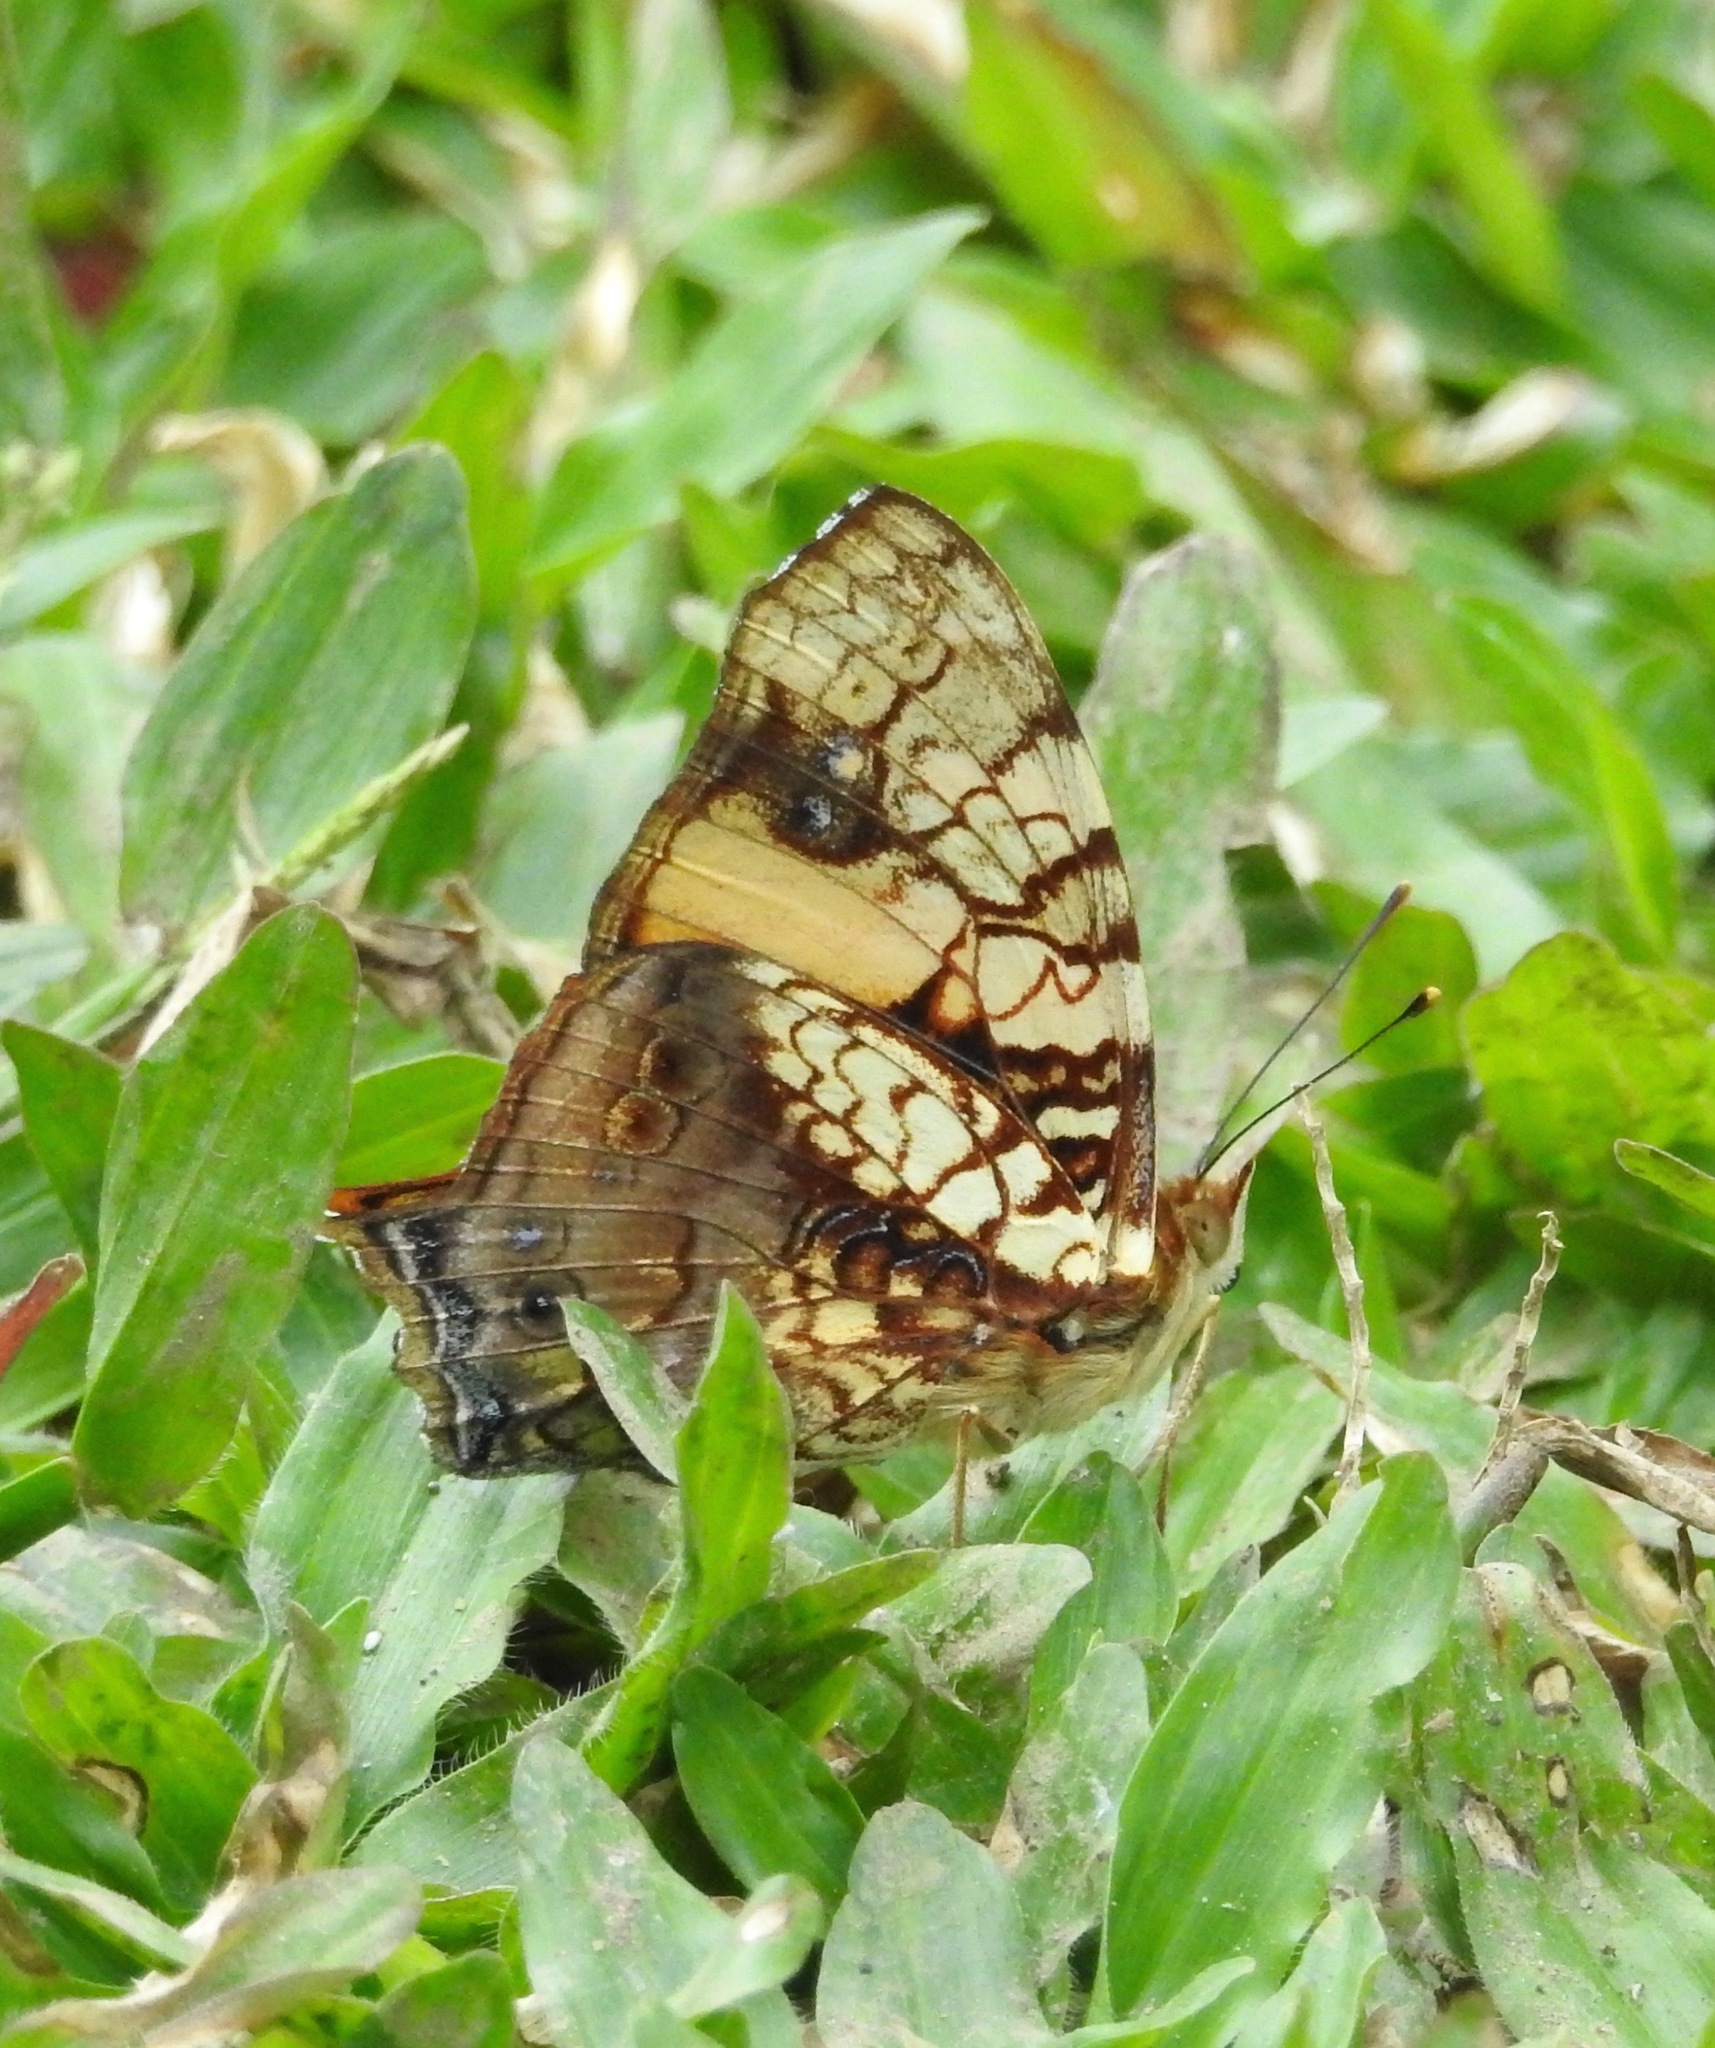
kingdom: Animalia
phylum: Arthropoda
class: Insecta
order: Lepidoptera
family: Nymphalidae
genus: Hypanartia
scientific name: Hypanartia lethe
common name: Orange mapwing
